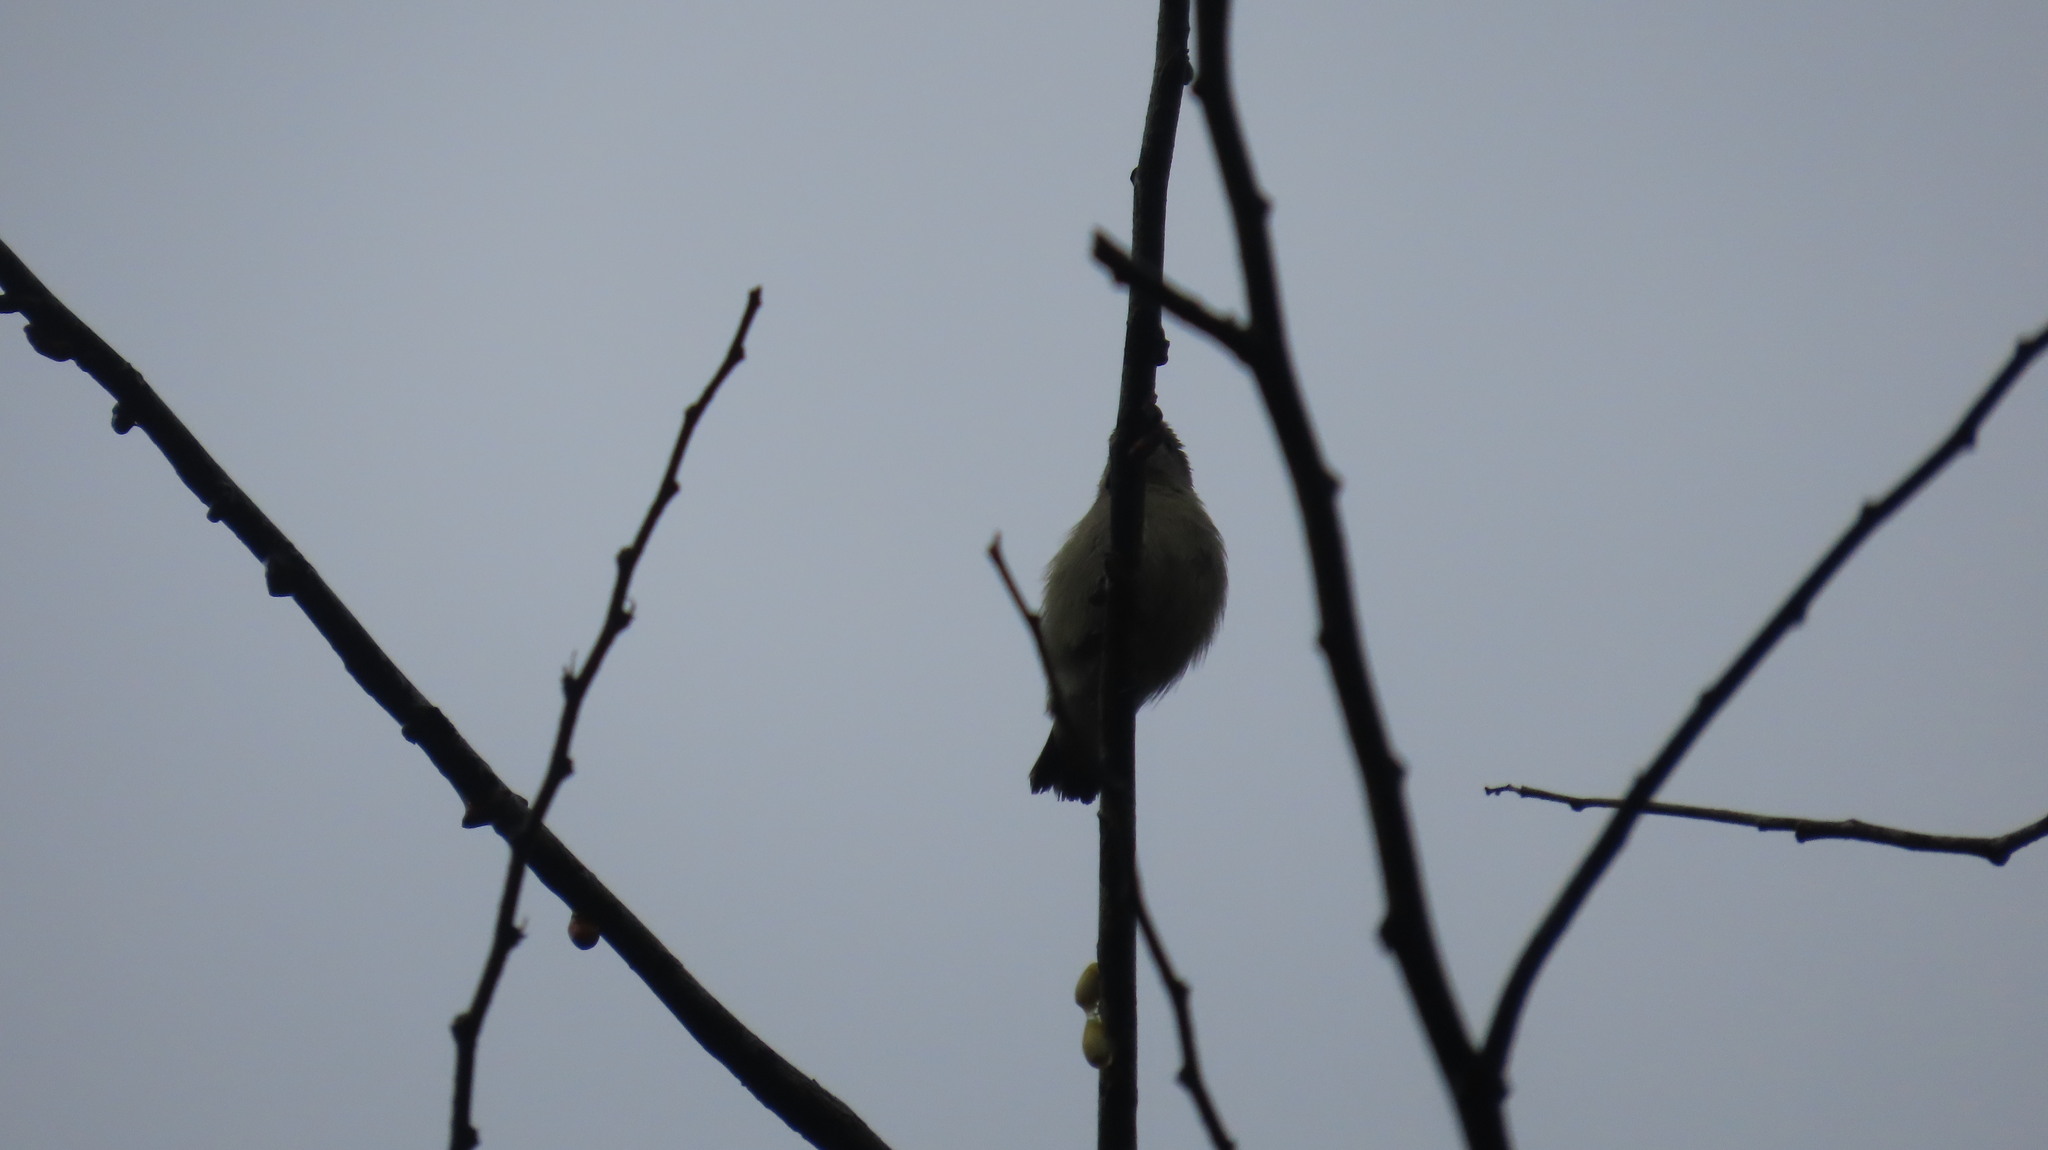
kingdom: Animalia
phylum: Chordata
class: Aves
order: Passeriformes
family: Dicaeidae
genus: Dicaeum
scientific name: Dicaeum erythrorhynchos
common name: Pale-billed flowerpecker
